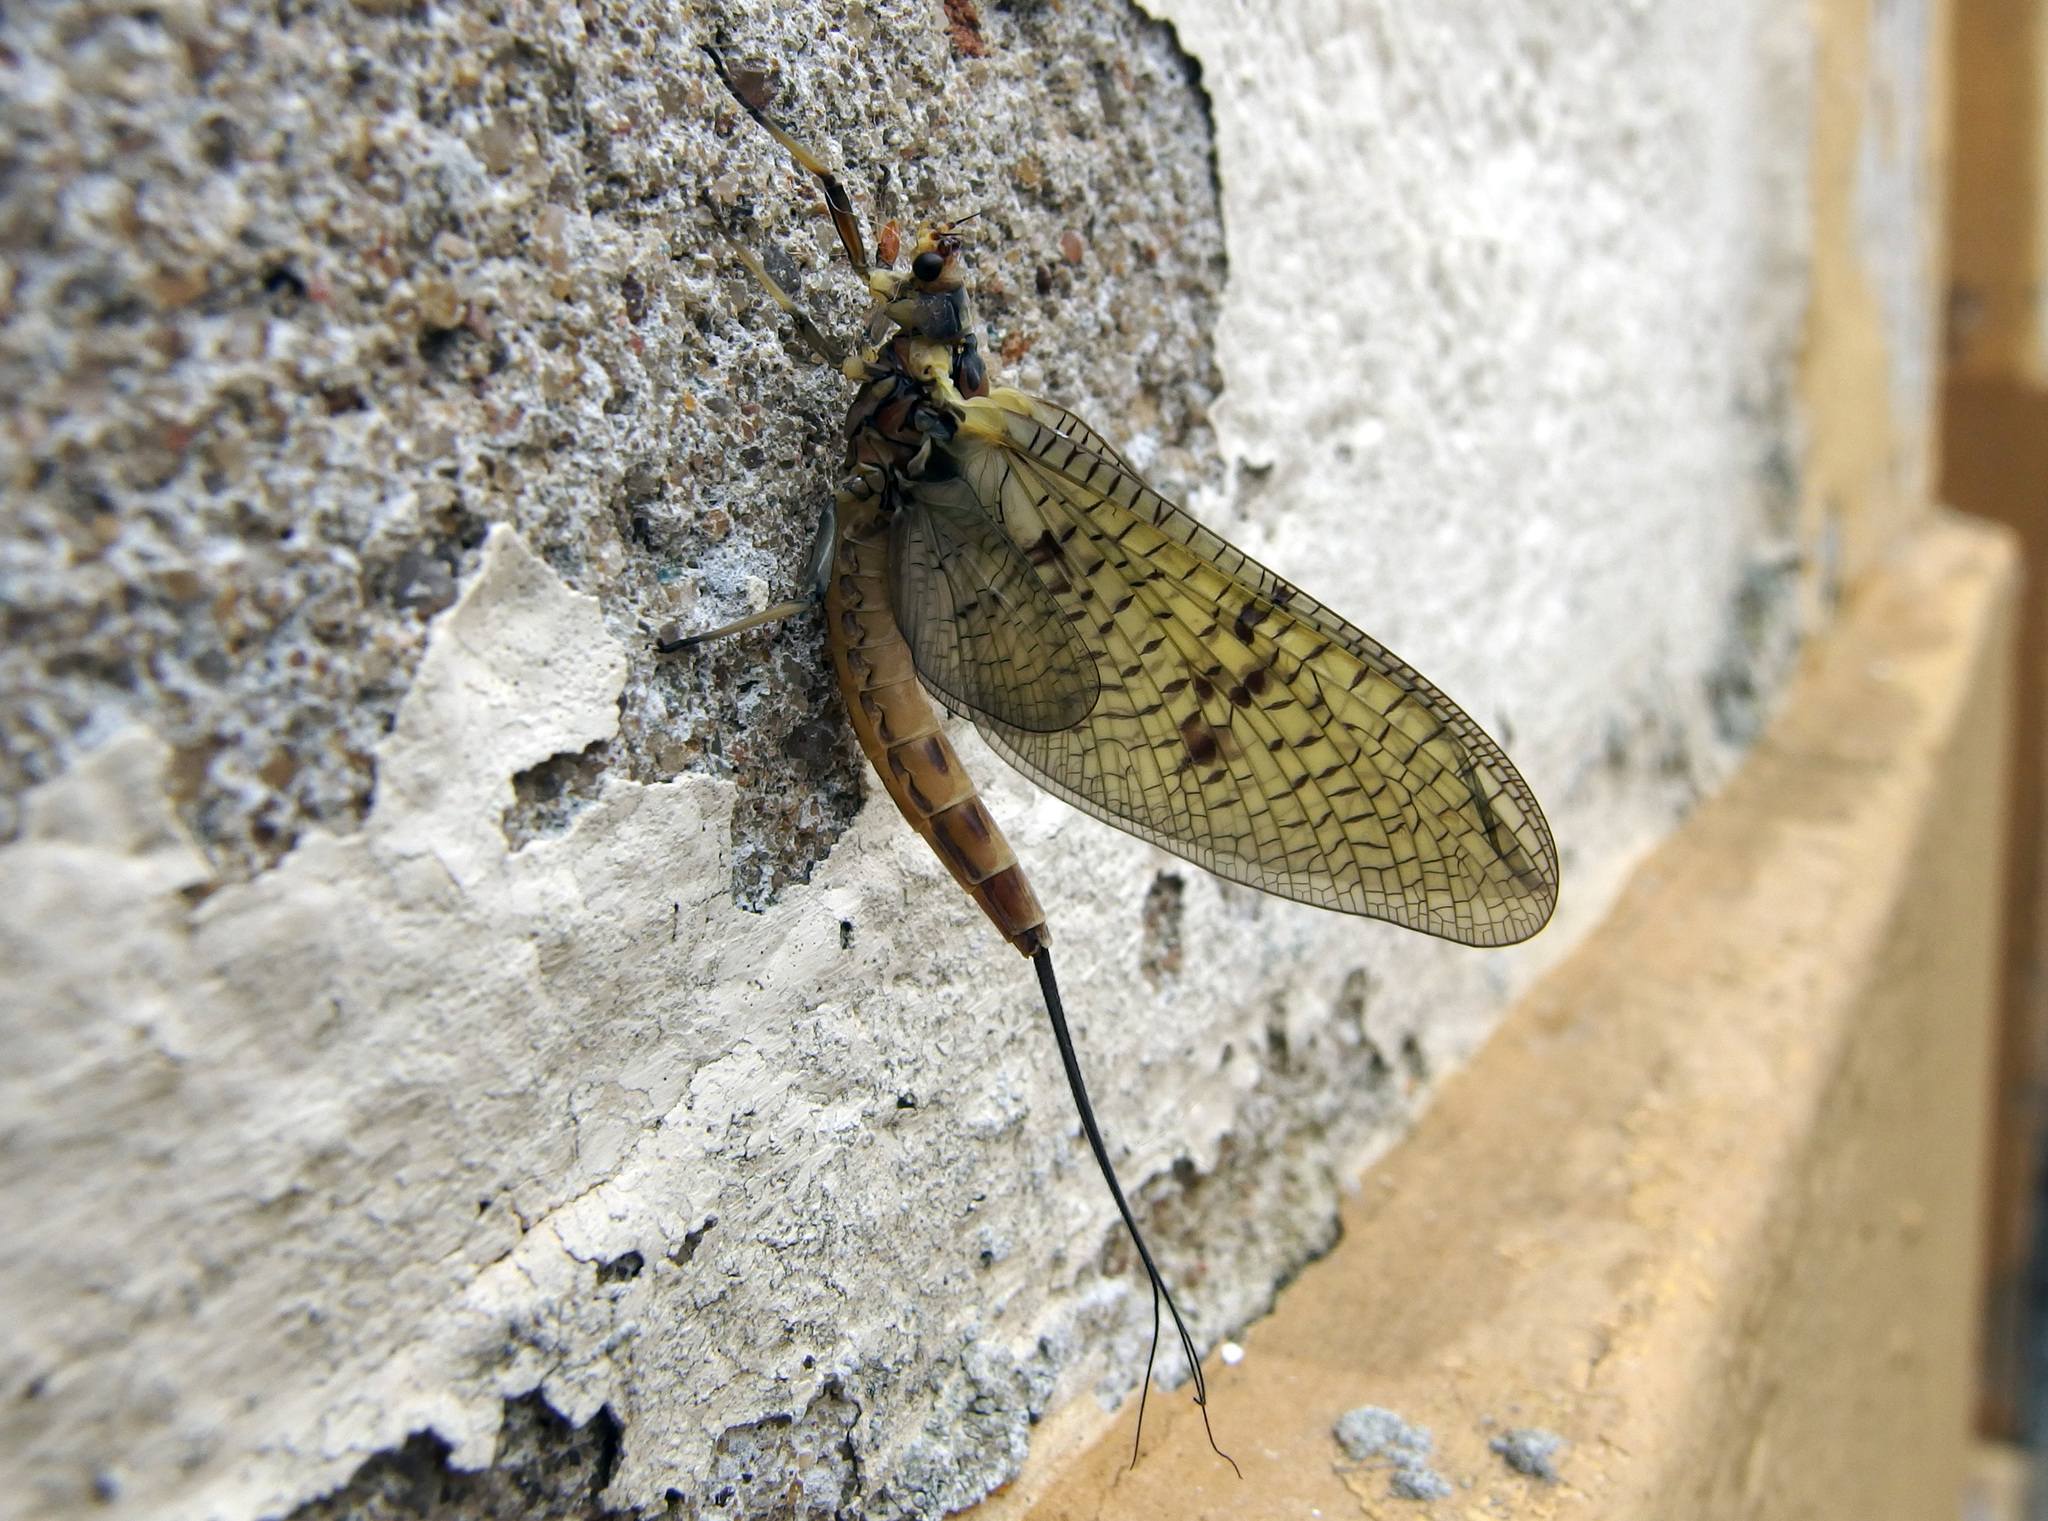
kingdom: Animalia
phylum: Arthropoda
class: Insecta
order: Ephemeroptera
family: Ephemeridae
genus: Ephemera
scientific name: Ephemera danica
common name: Green dun
